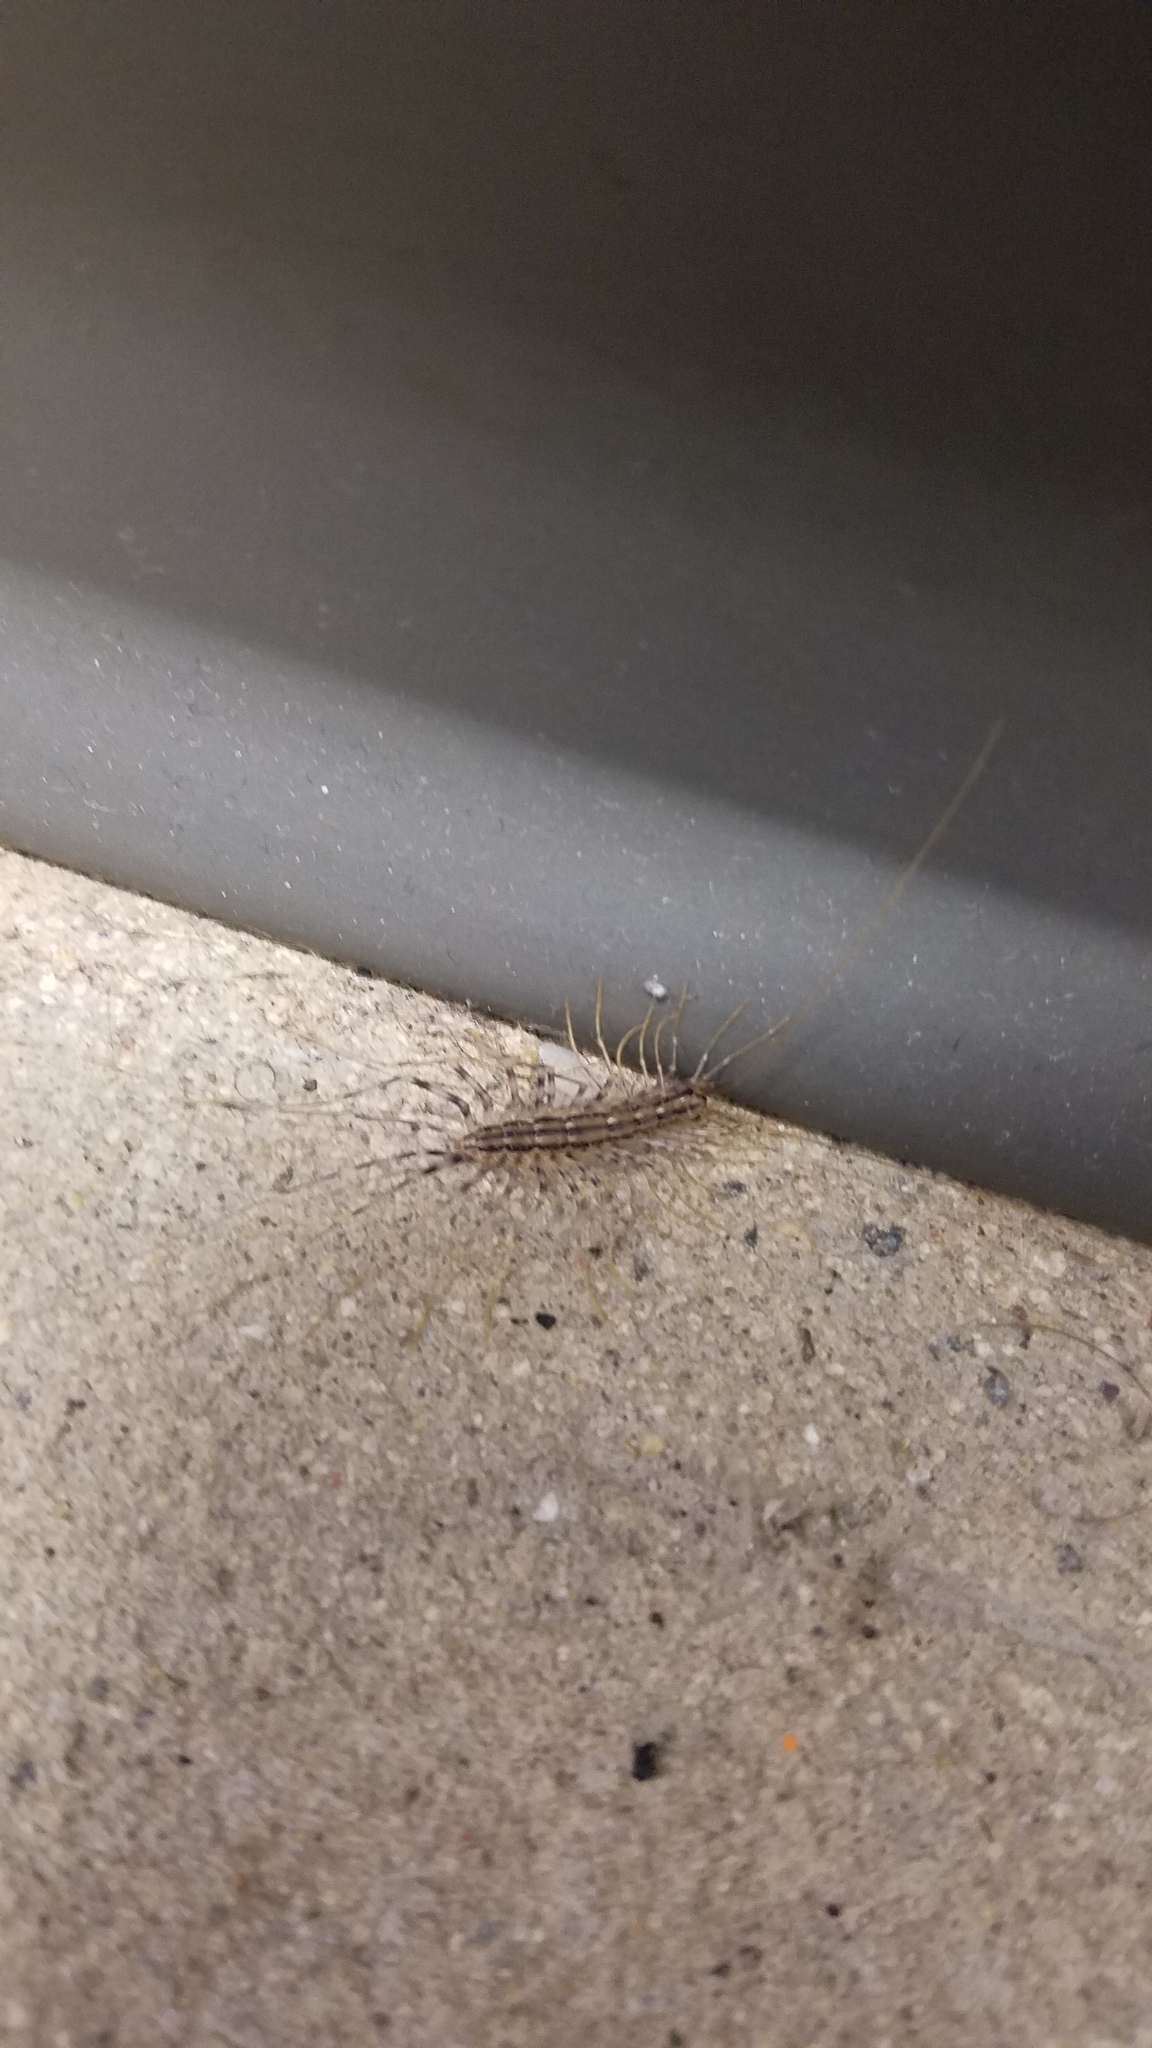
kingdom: Animalia
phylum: Arthropoda
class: Chilopoda
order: Scutigeromorpha
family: Scutigeridae
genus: Scutigera
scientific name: Scutigera coleoptrata
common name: House centipede
